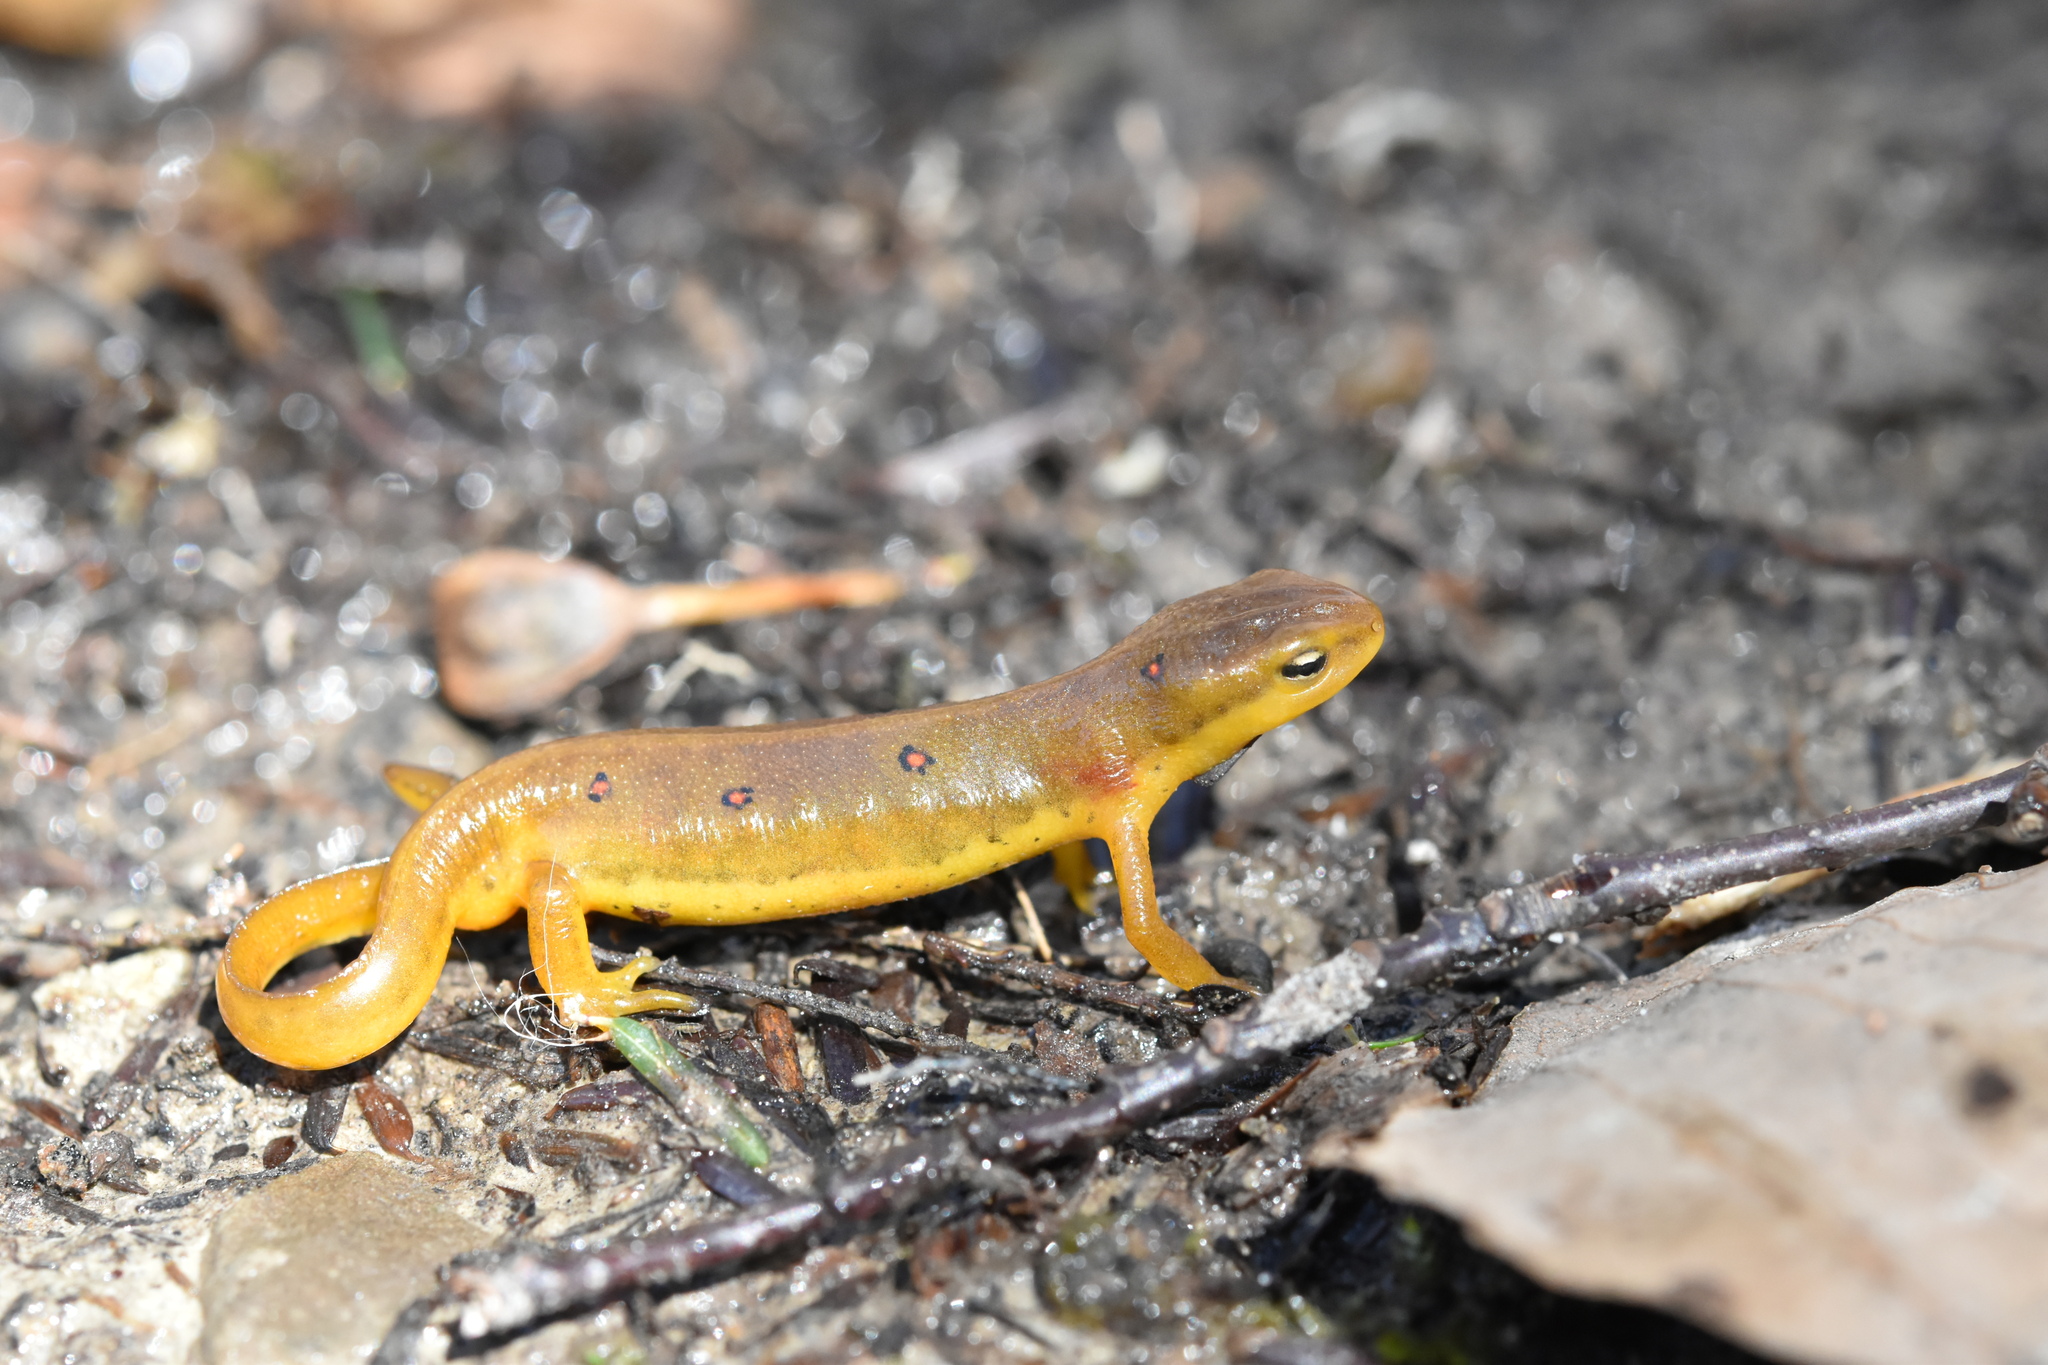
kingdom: Animalia
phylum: Chordata
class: Amphibia
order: Caudata
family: Salamandridae
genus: Notophthalmus
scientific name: Notophthalmus viridescens
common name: Eastern newt
